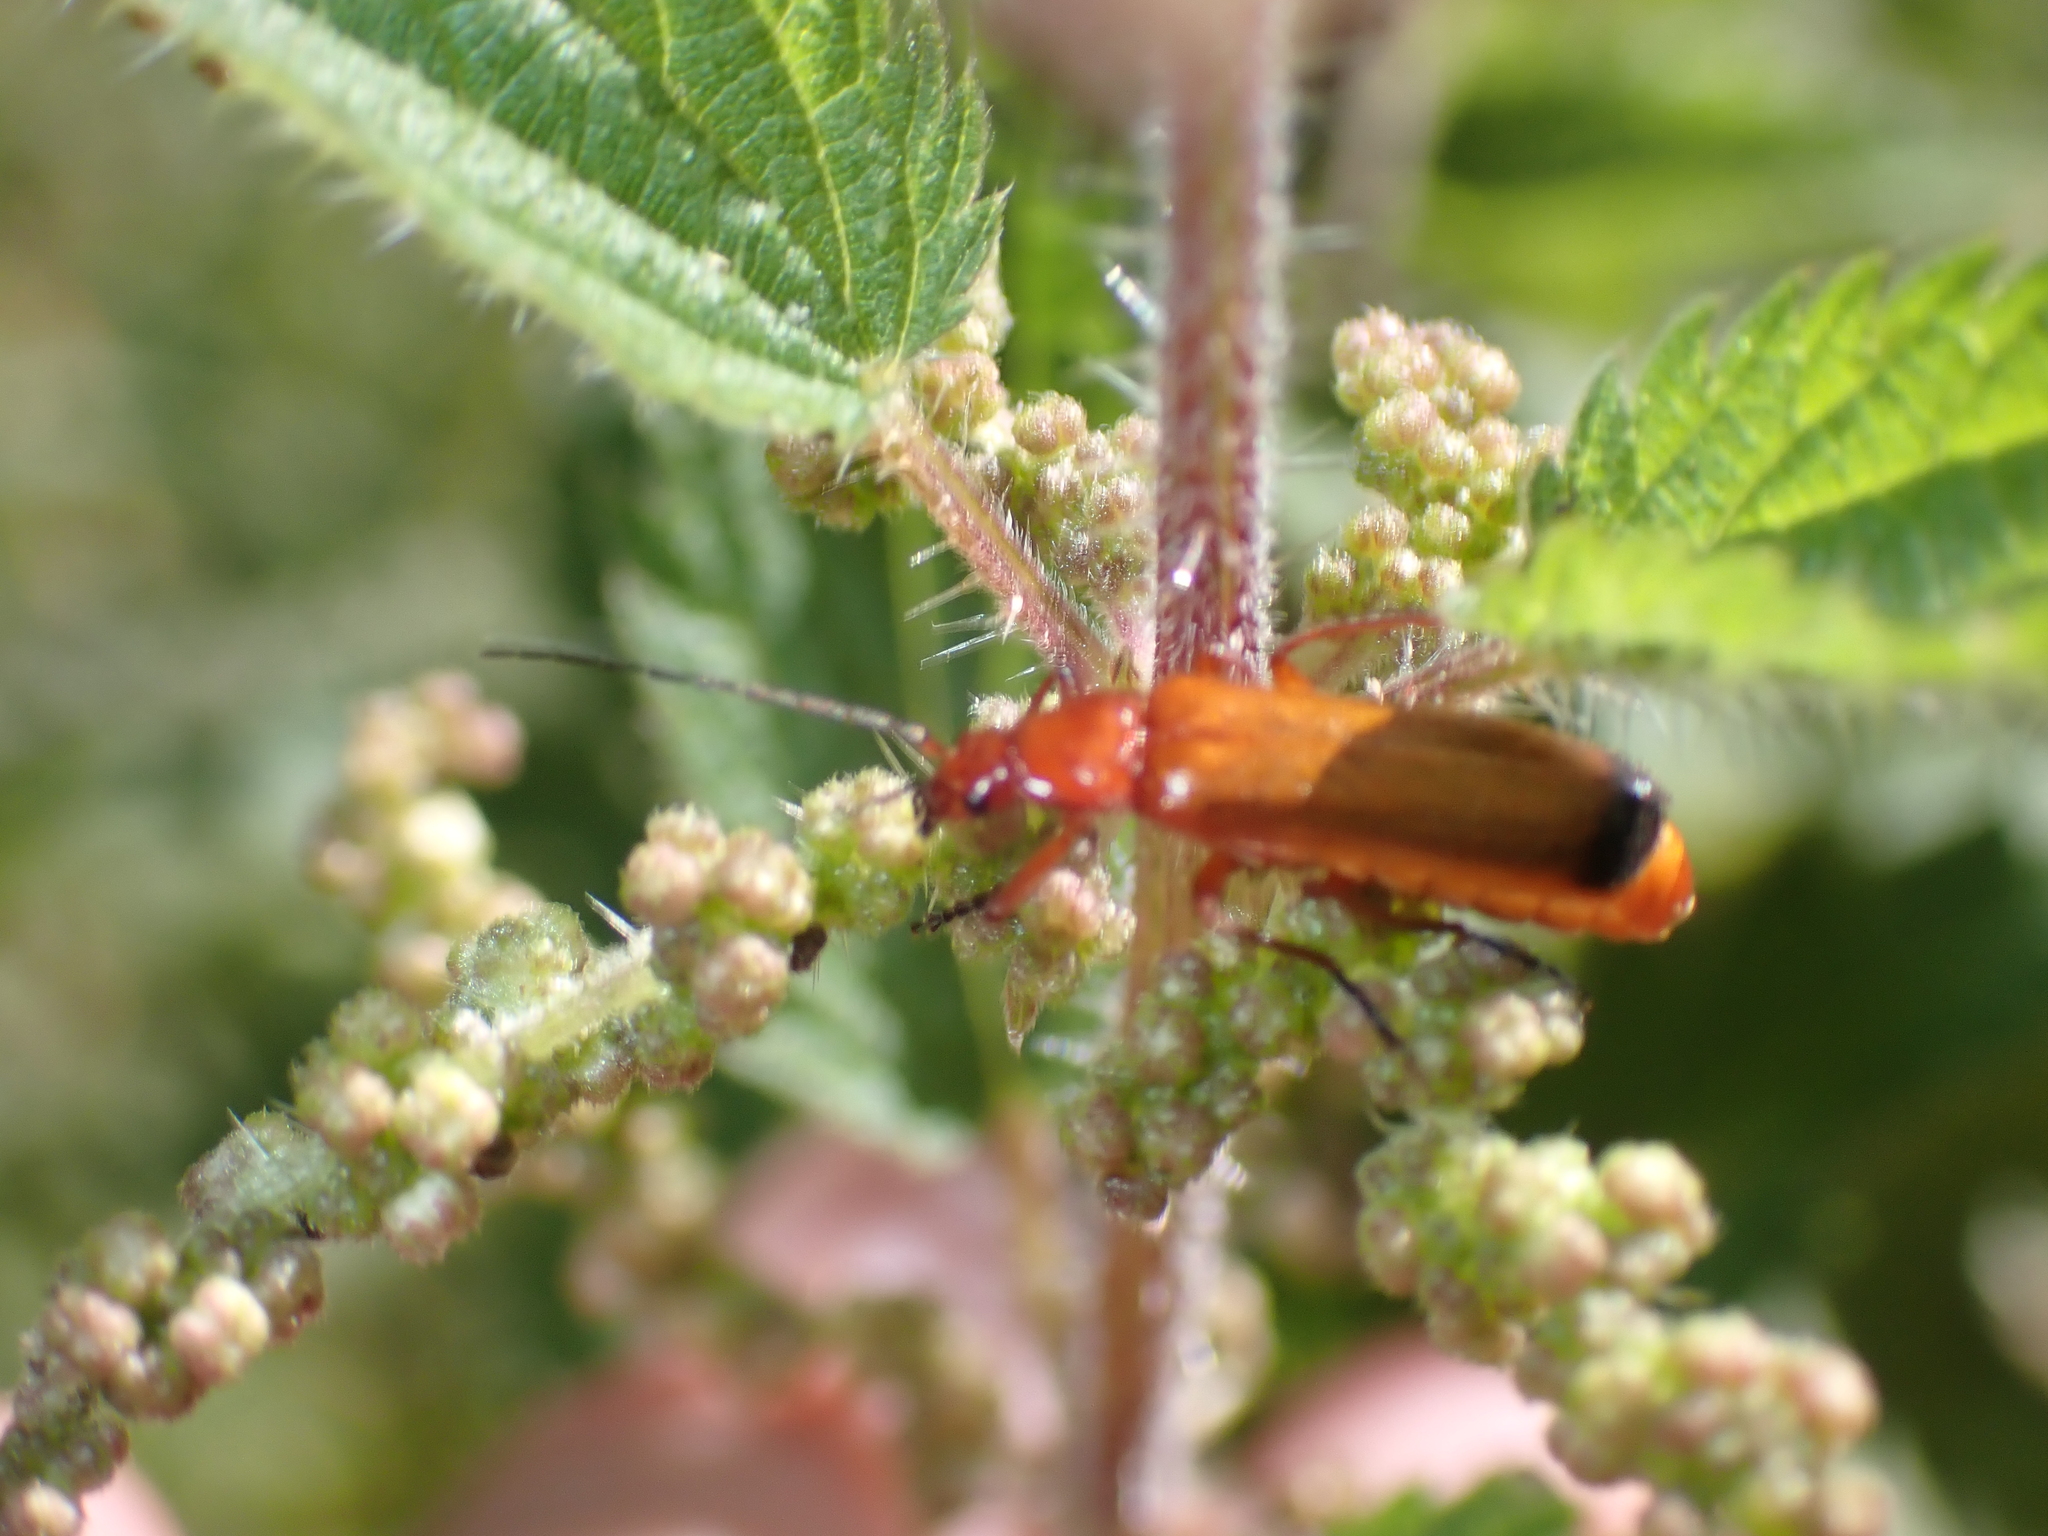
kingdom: Animalia
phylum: Arthropoda
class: Insecta
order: Coleoptera
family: Cantharidae
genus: Rhagonycha
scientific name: Rhagonycha fulva
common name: Common red soldier beetle
